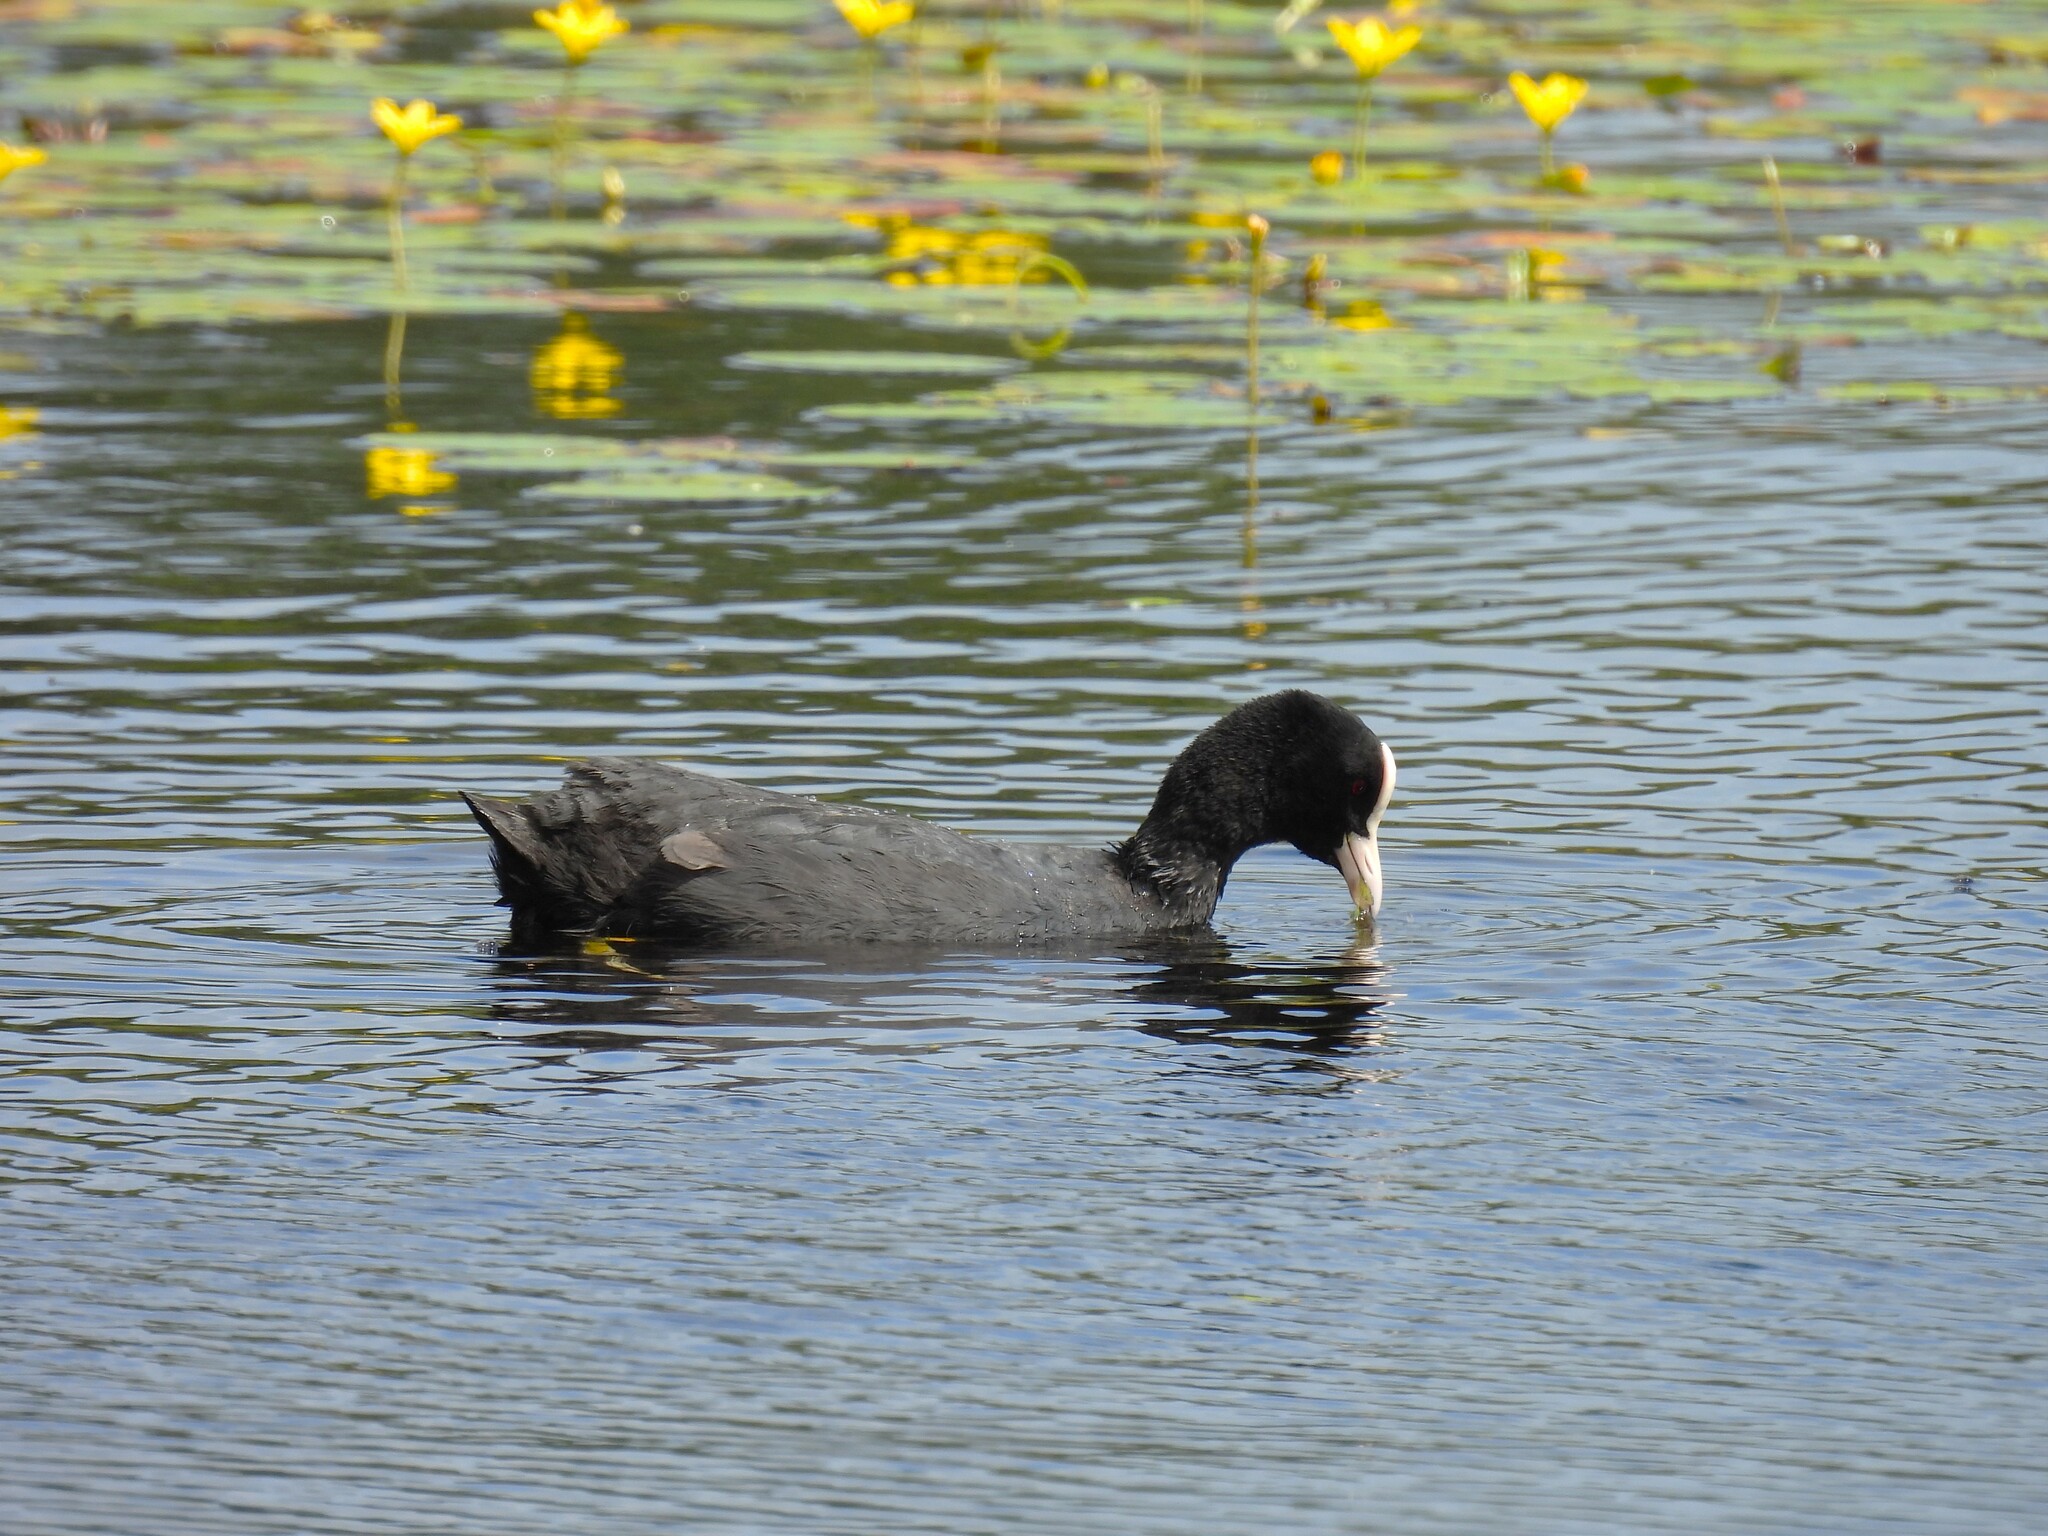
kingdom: Animalia
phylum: Chordata
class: Aves
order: Gruiformes
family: Rallidae
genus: Fulica
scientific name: Fulica atra
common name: Eurasian coot
